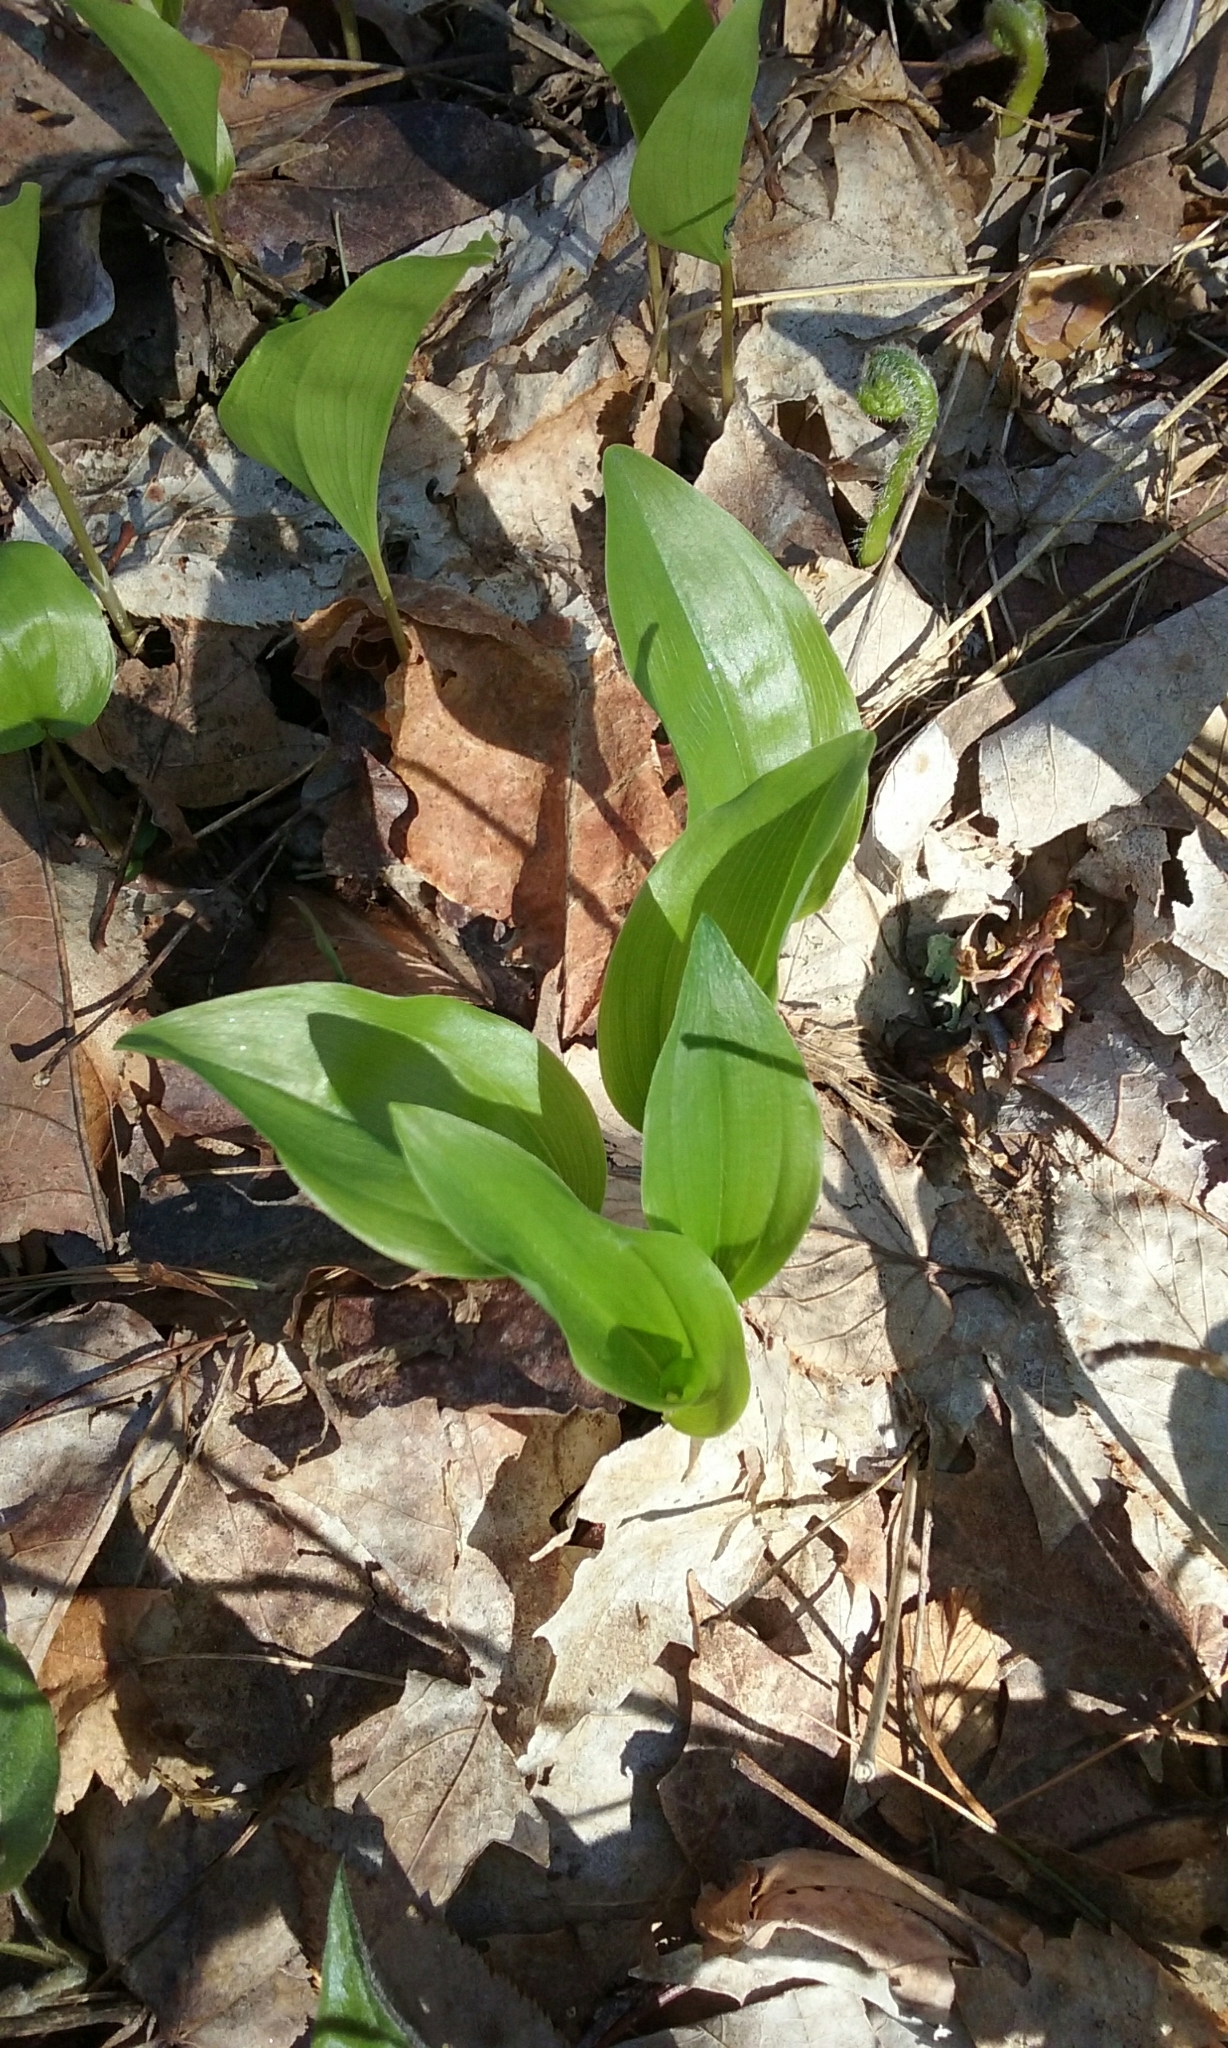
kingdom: Plantae
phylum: Tracheophyta
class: Liliopsida
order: Asparagales
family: Asparagaceae
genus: Maianthemum
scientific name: Maianthemum canadense
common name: False lily-of-the-valley
